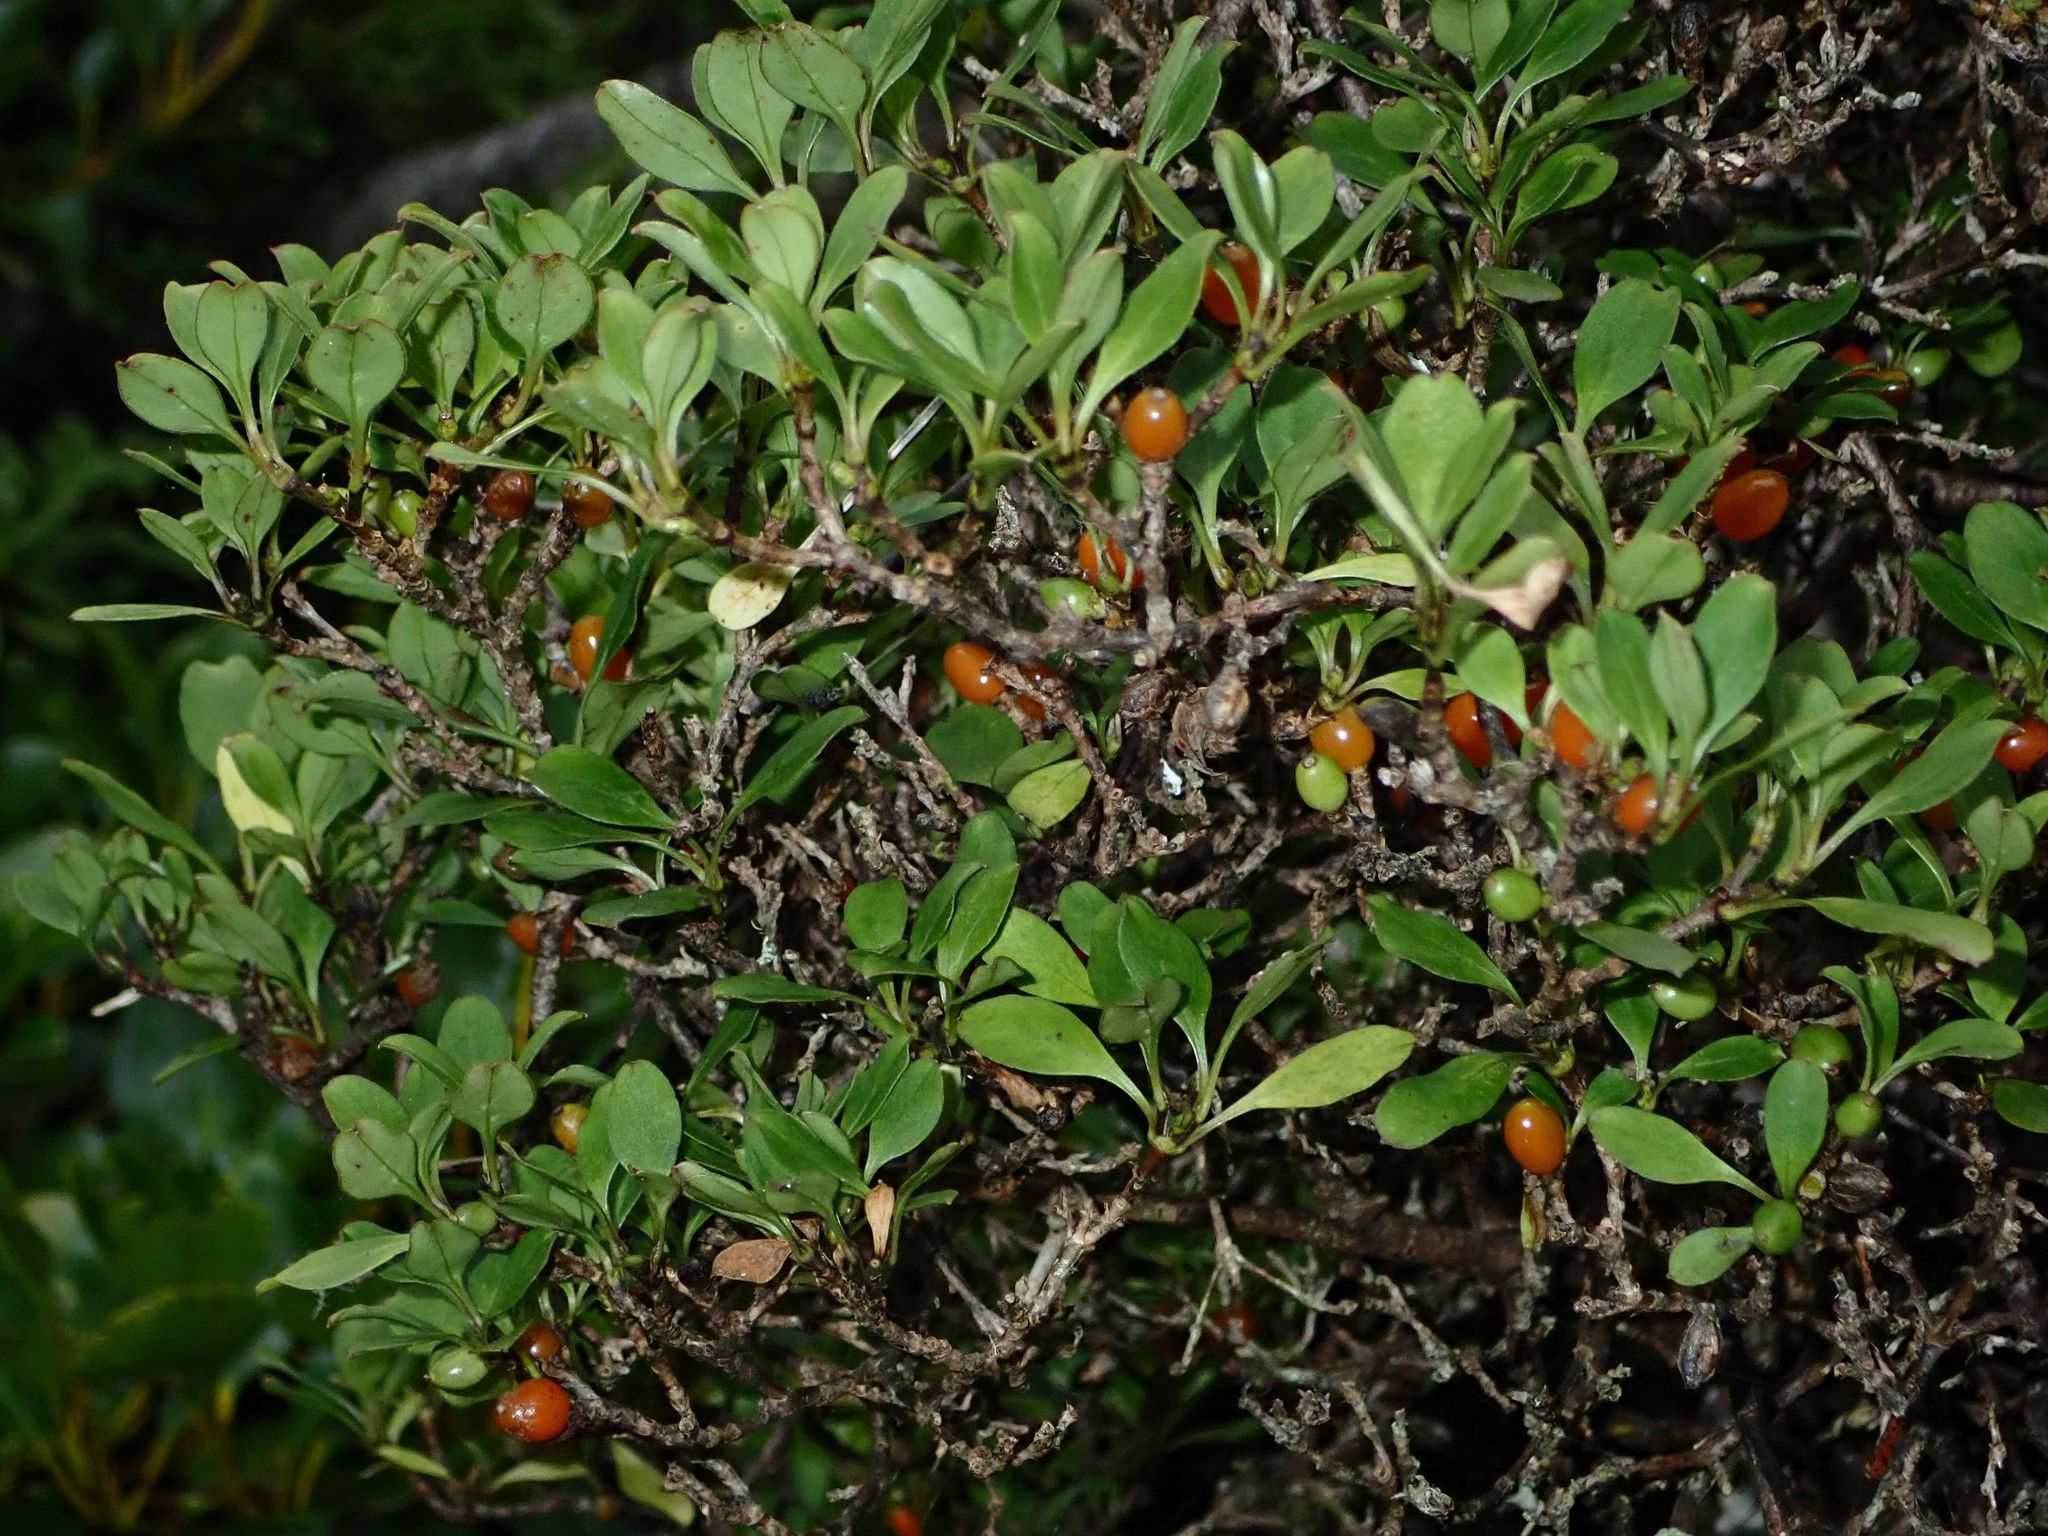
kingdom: Plantae
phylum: Tracheophyta
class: Magnoliopsida
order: Gentianales
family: Rubiaceae
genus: Coprosma
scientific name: Coprosma foetidissima
